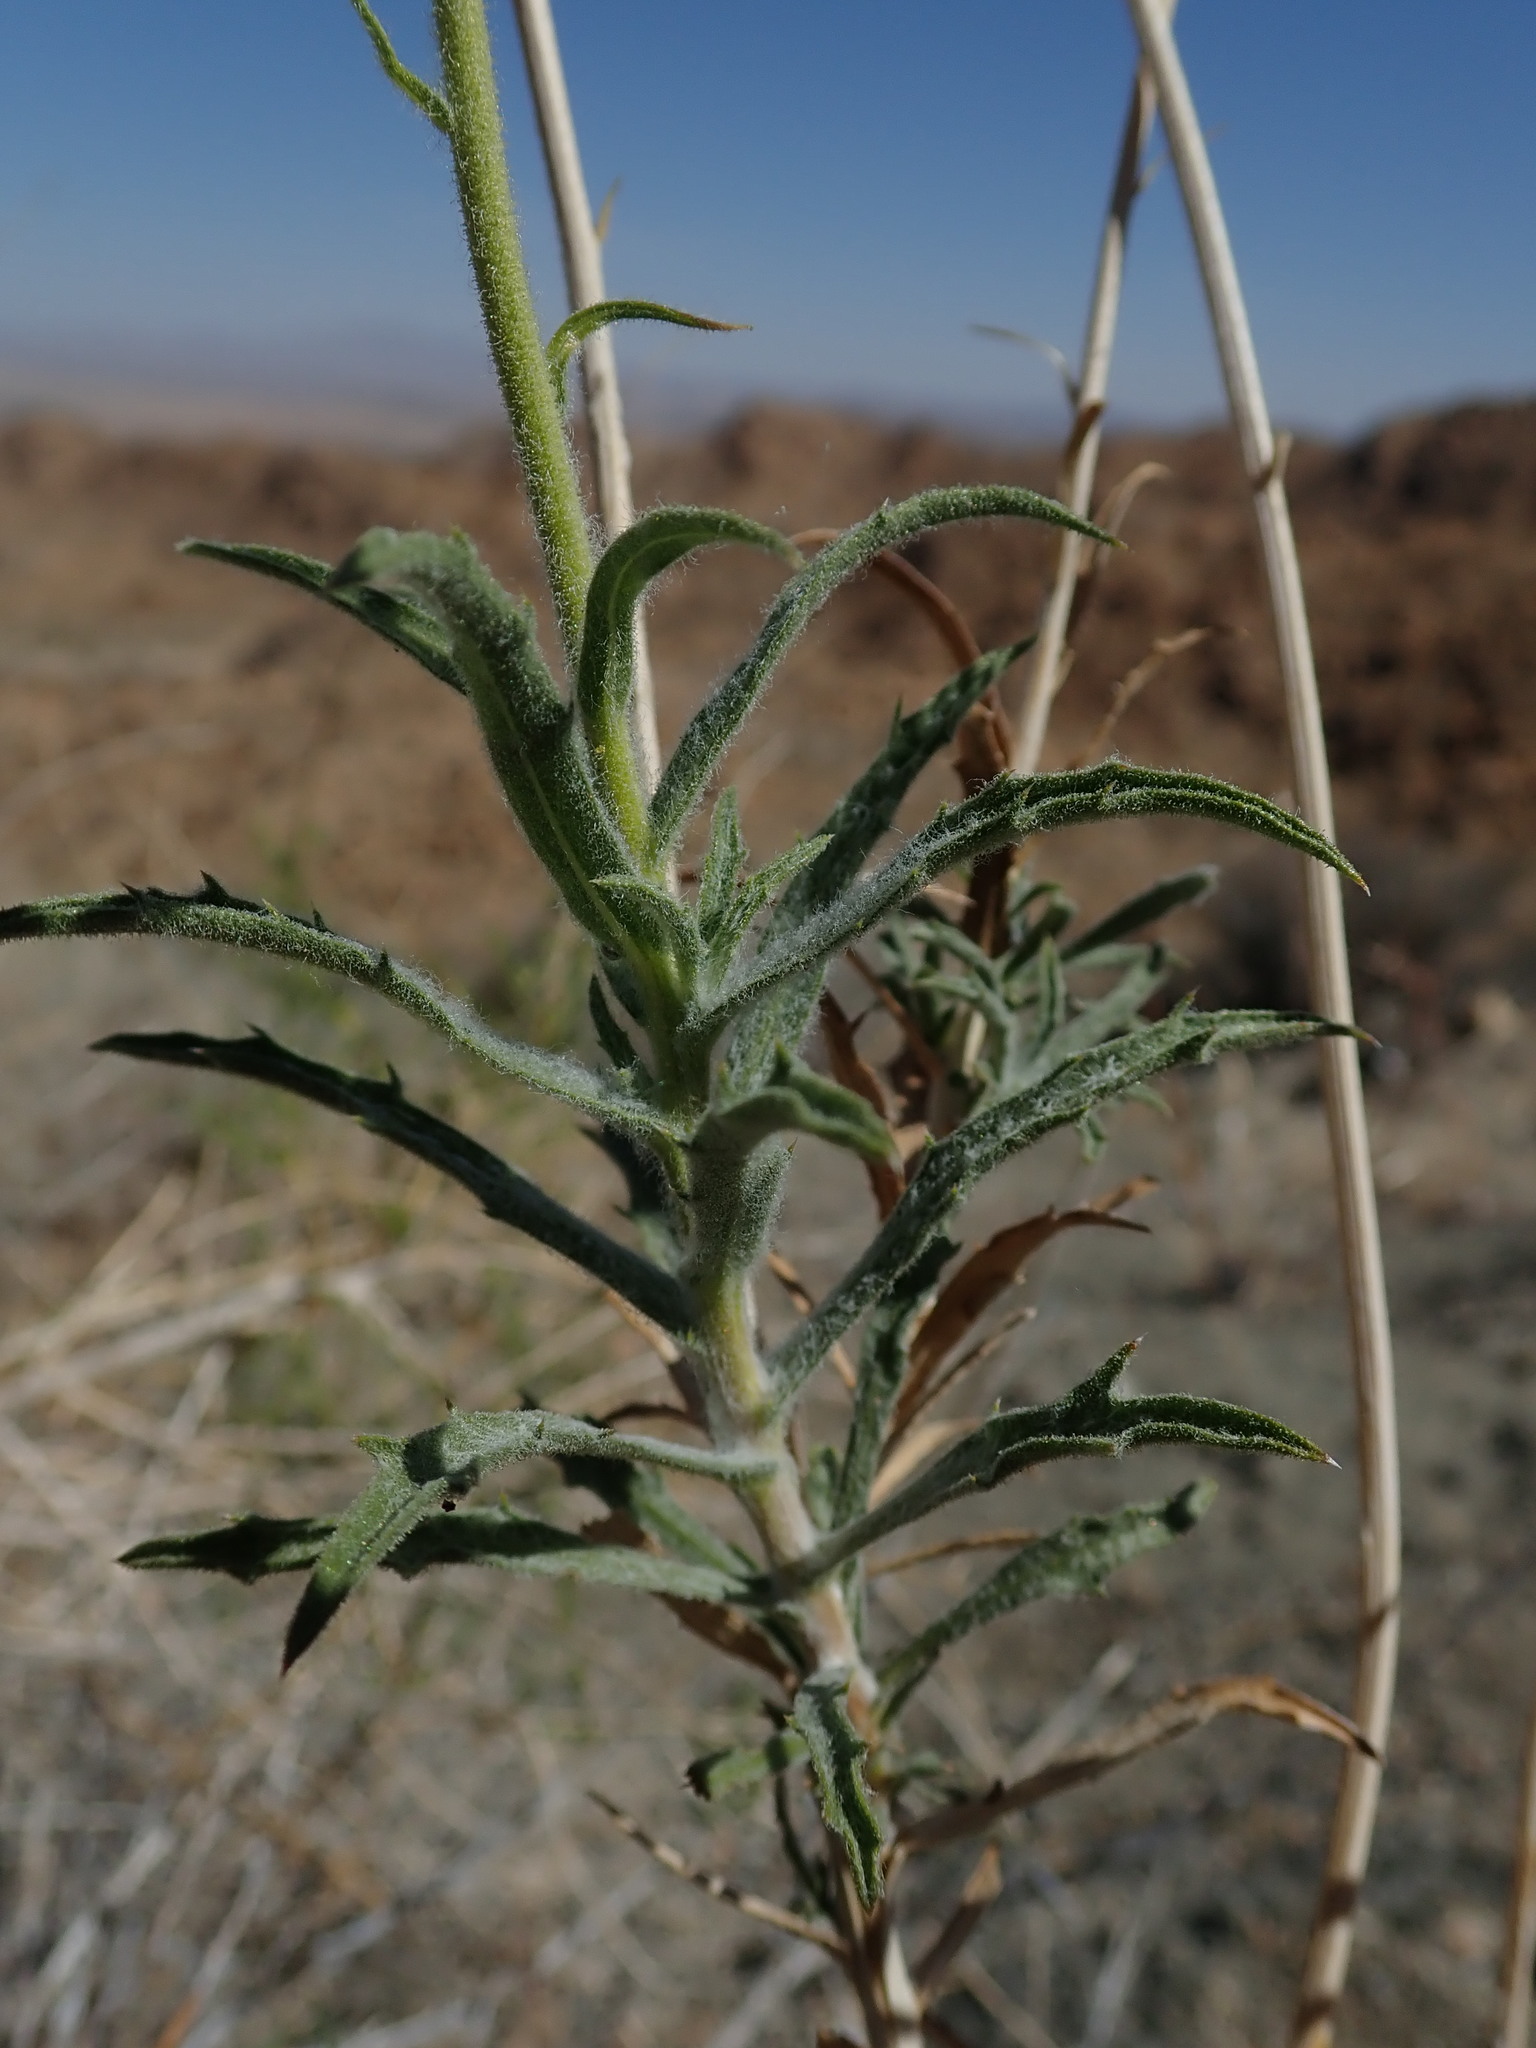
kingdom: Plantae
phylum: Tracheophyta
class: Magnoliopsida
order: Asterales
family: Asteraceae
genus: Xylorhiza
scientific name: Xylorhiza tortifolia
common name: Hurt-leaf woody-aster
